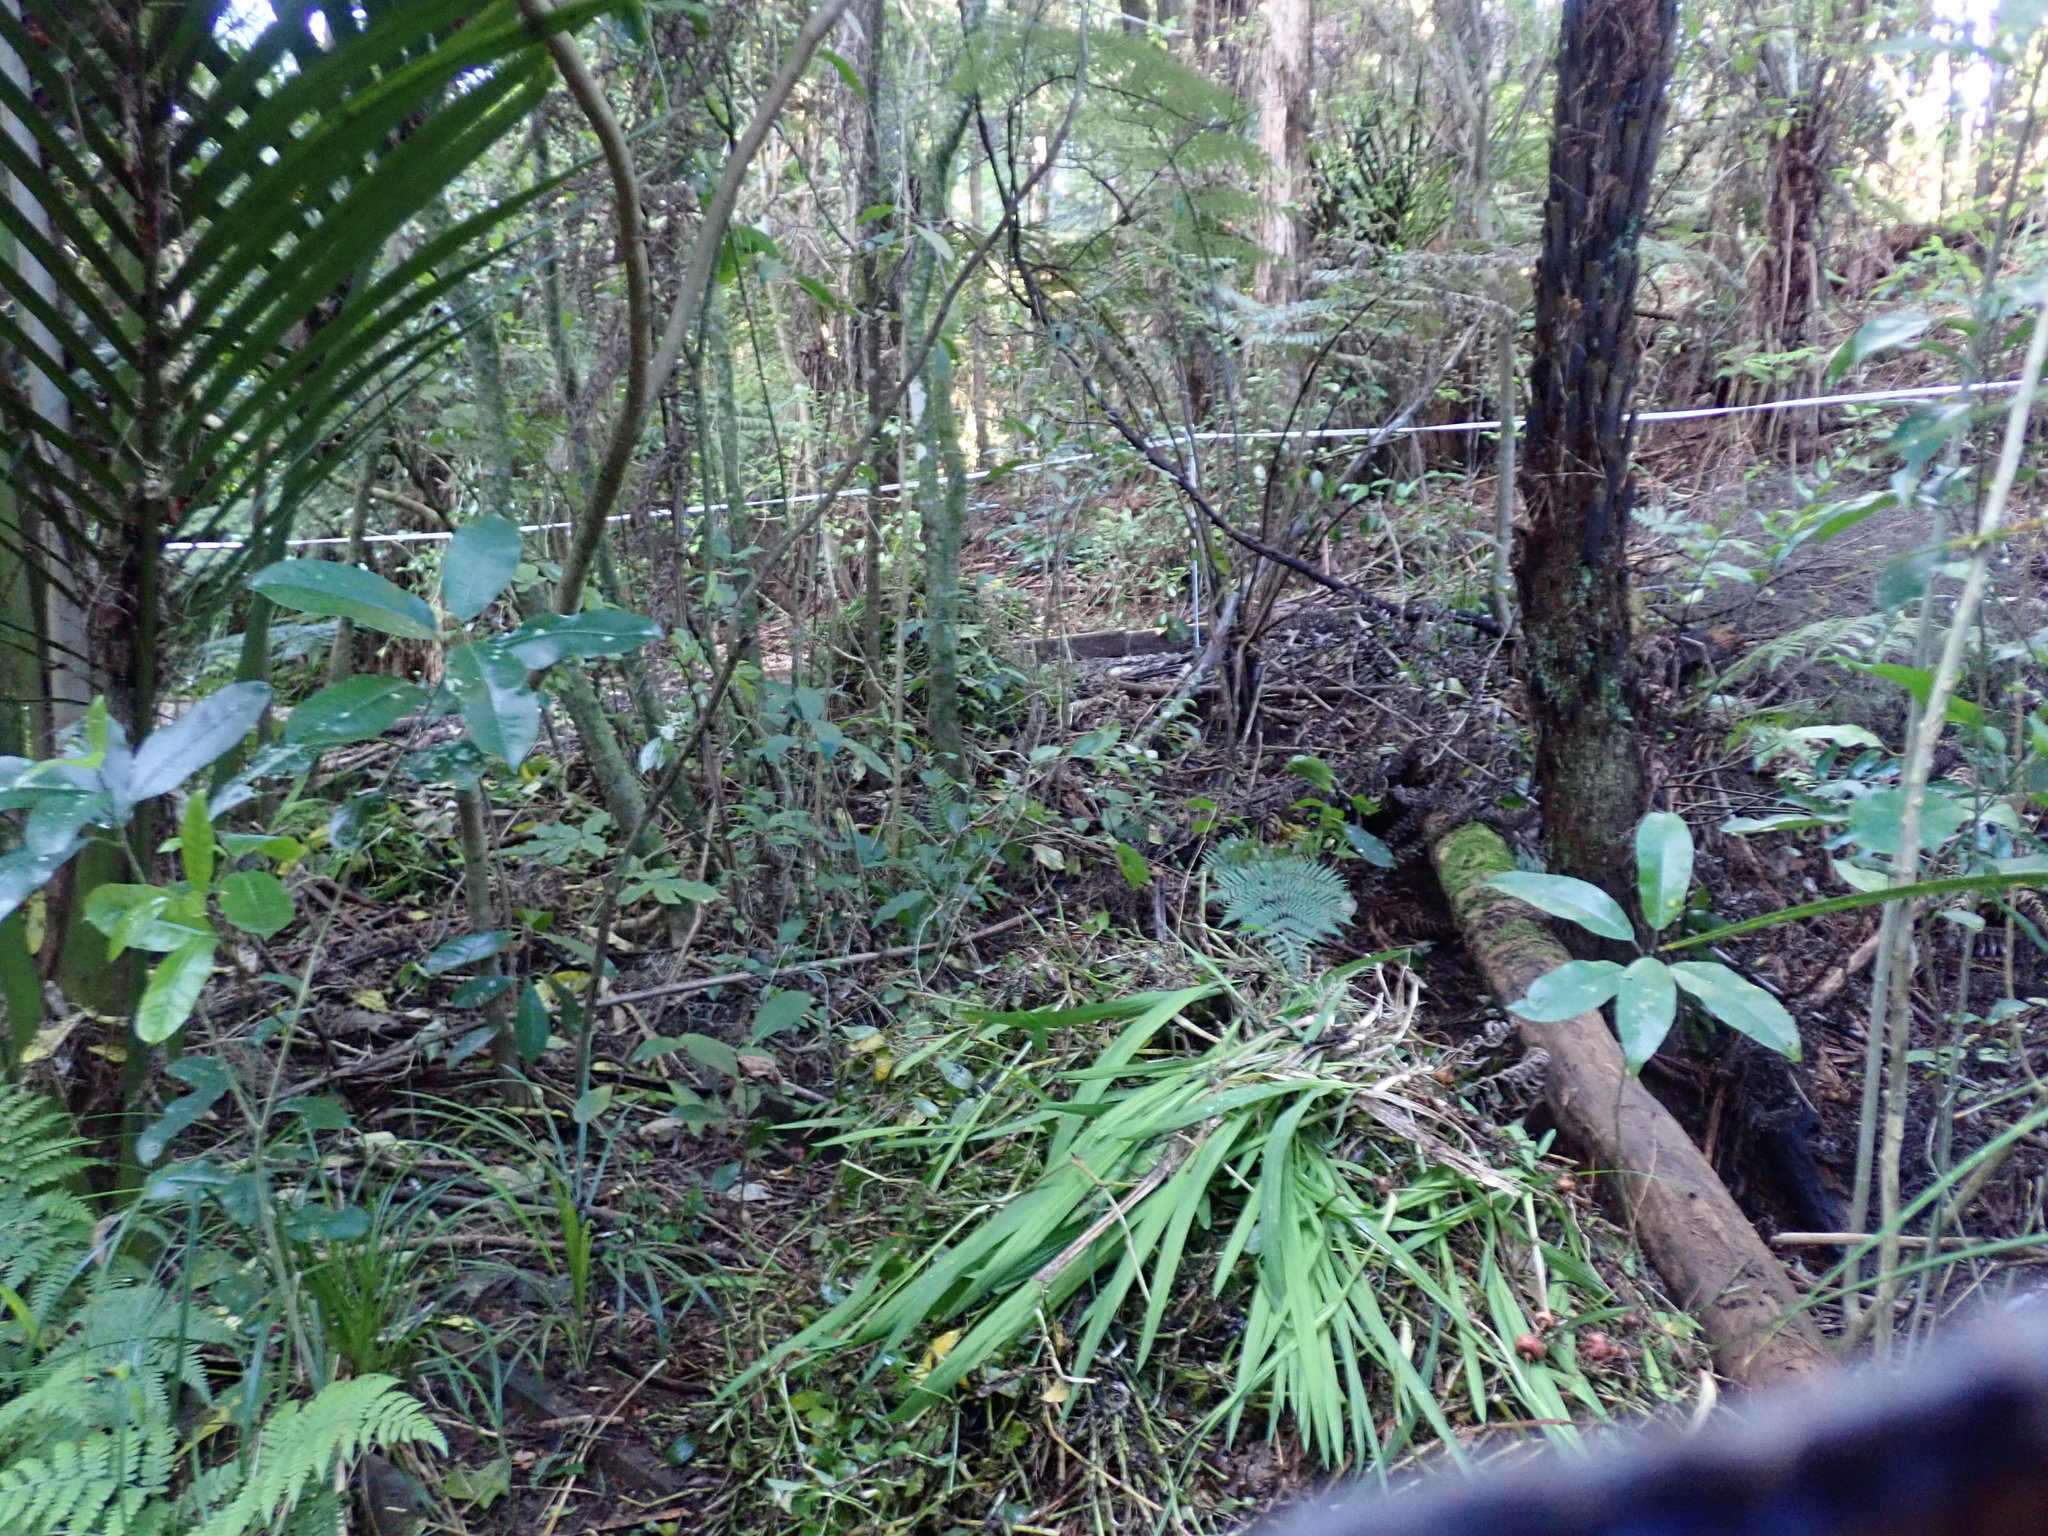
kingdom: Plantae
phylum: Tracheophyta
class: Magnoliopsida
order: Malpighiales
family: Violaceae
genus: Melicytus
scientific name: Melicytus ramiflorus
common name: Mahoe
